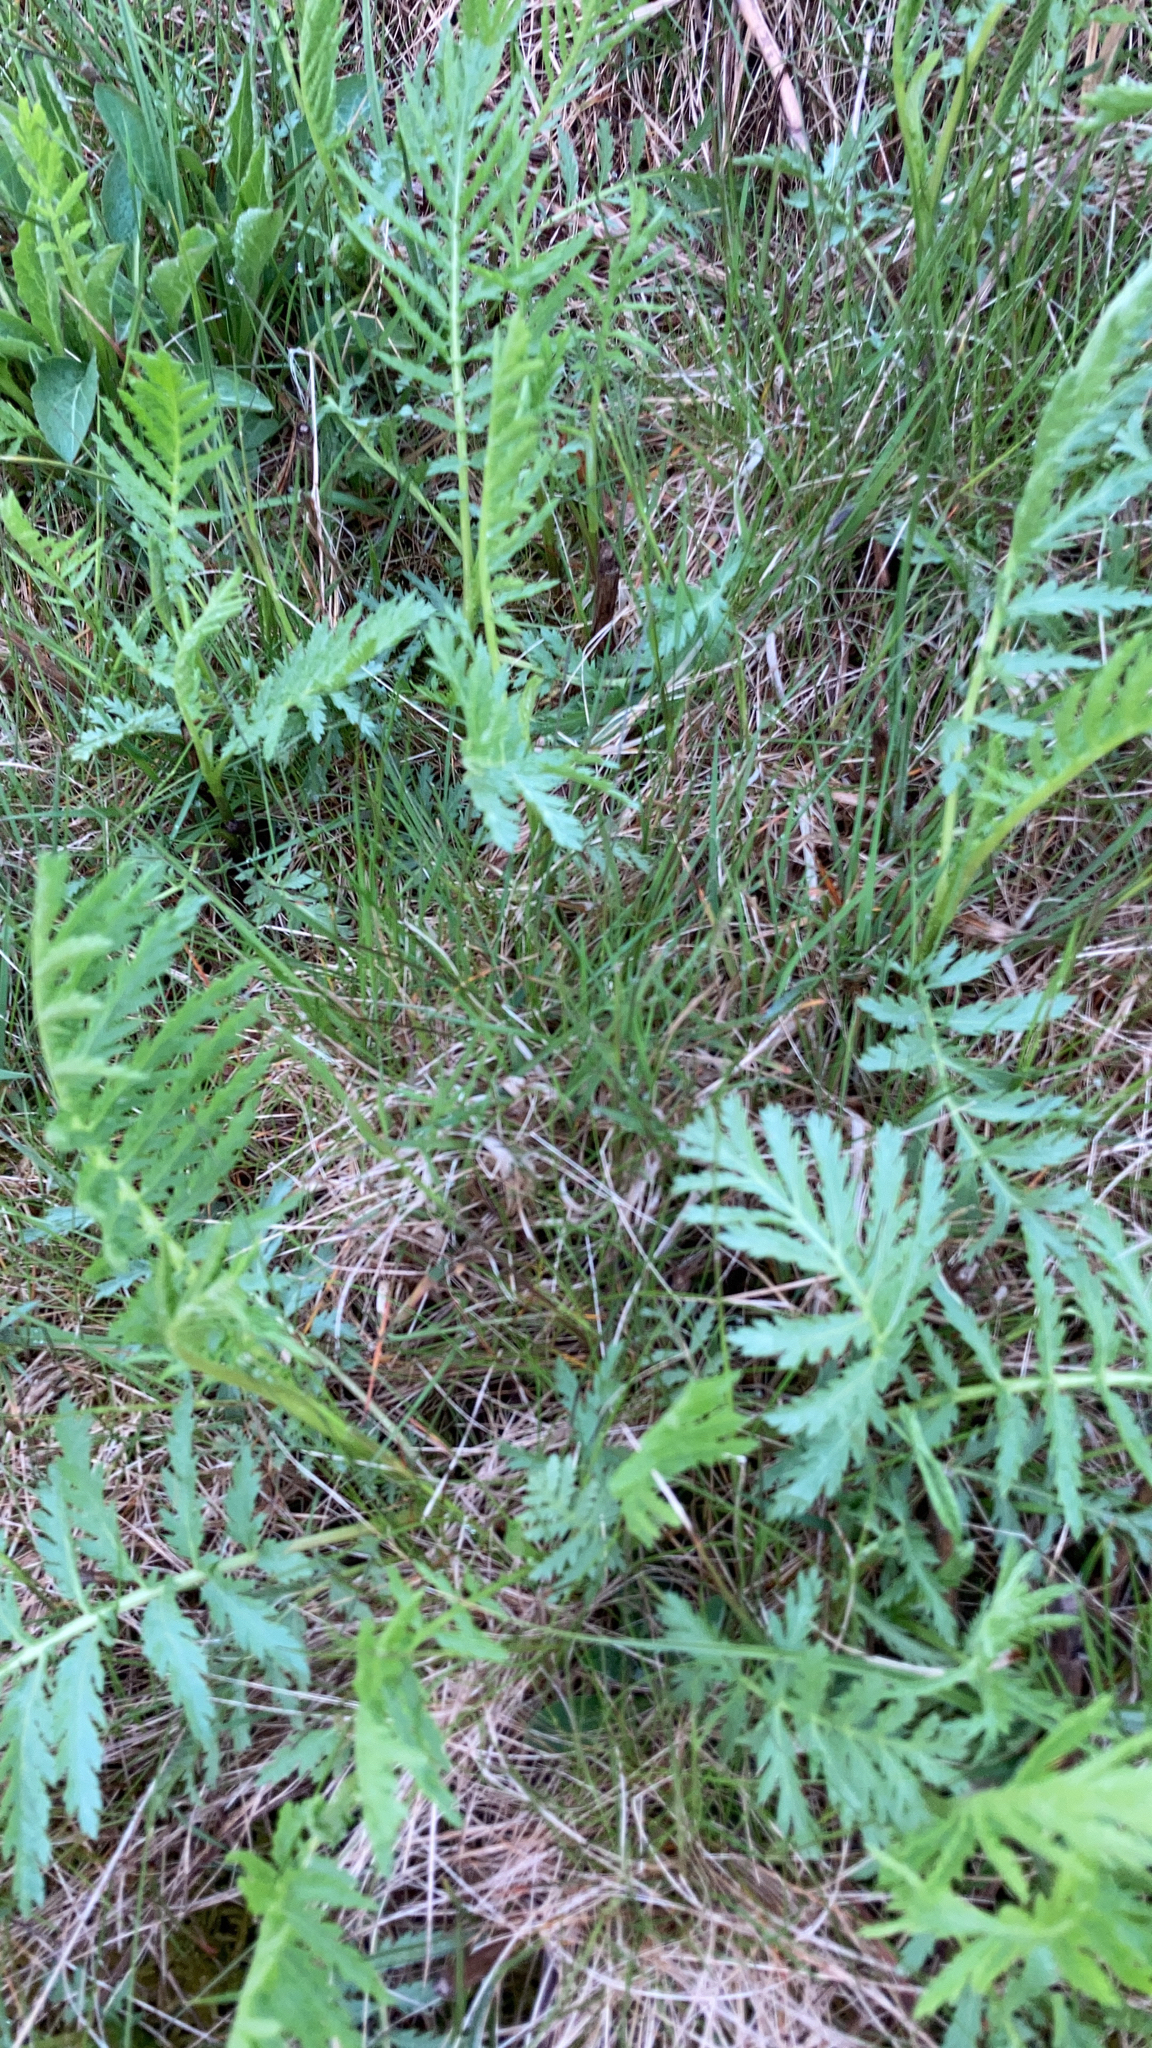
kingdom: Plantae
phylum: Tracheophyta
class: Magnoliopsida
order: Asterales
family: Asteraceae
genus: Tanacetum
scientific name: Tanacetum vulgare
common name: Common tansy
